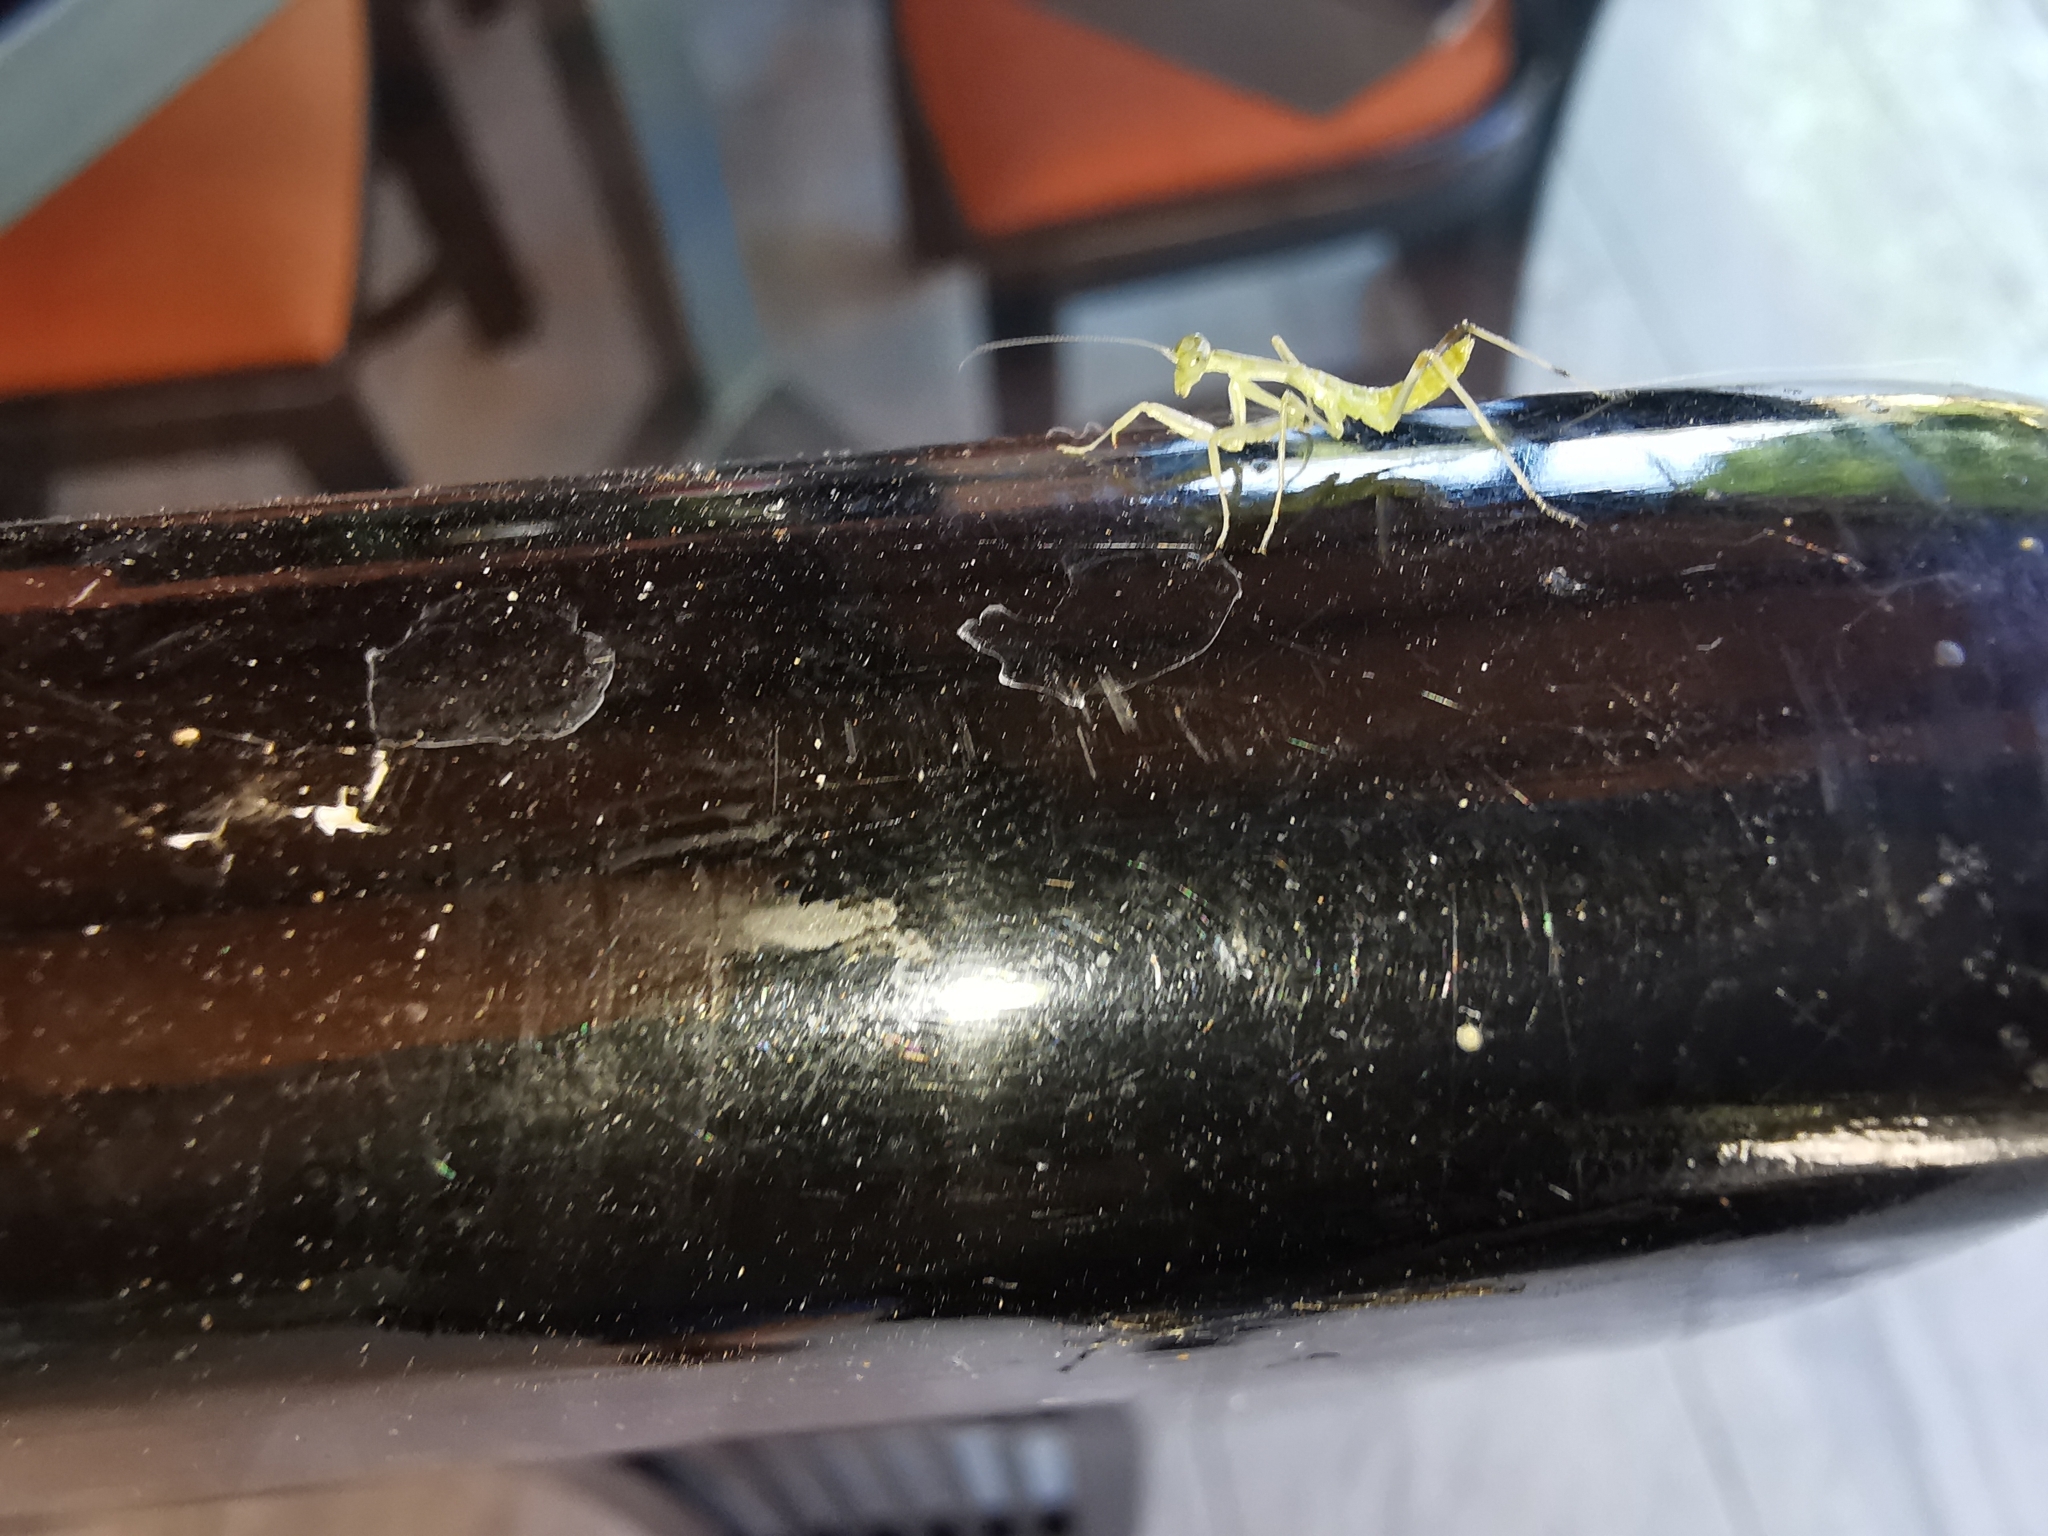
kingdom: Animalia
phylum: Arthropoda
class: Insecta
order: Mantodea
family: Mantidae
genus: Hierodula
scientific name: Hierodula transcaucasica
